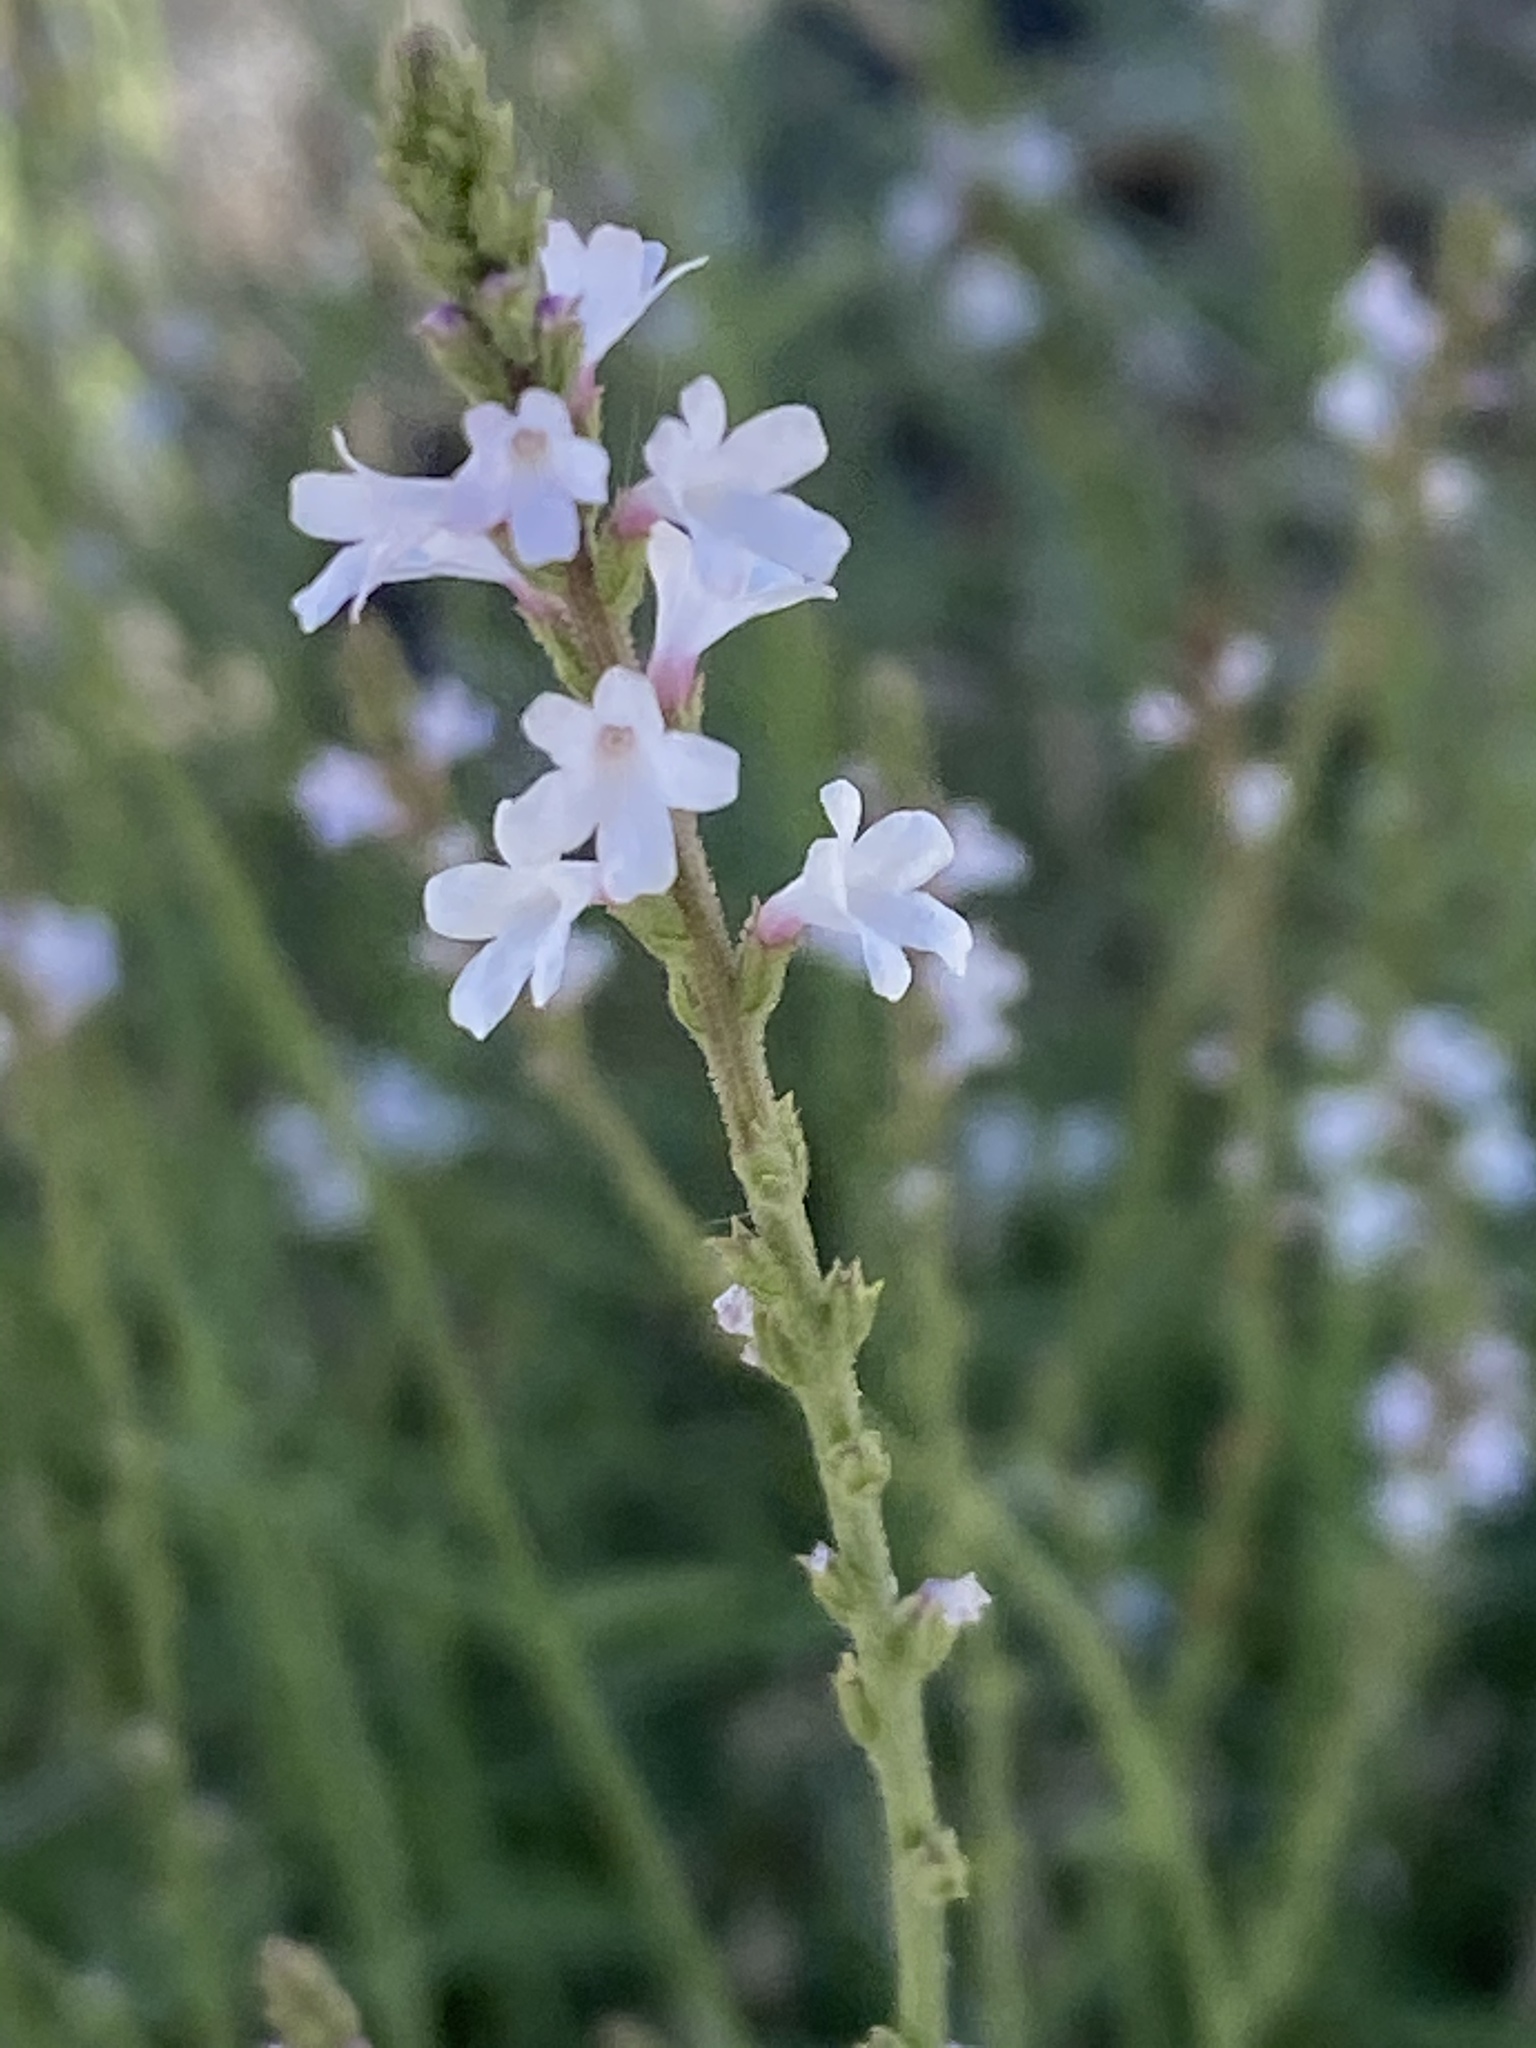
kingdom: Plantae
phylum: Tracheophyta
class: Magnoliopsida
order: Lamiales
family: Verbenaceae
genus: Verbena
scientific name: Verbena officinalis
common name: Vervain
